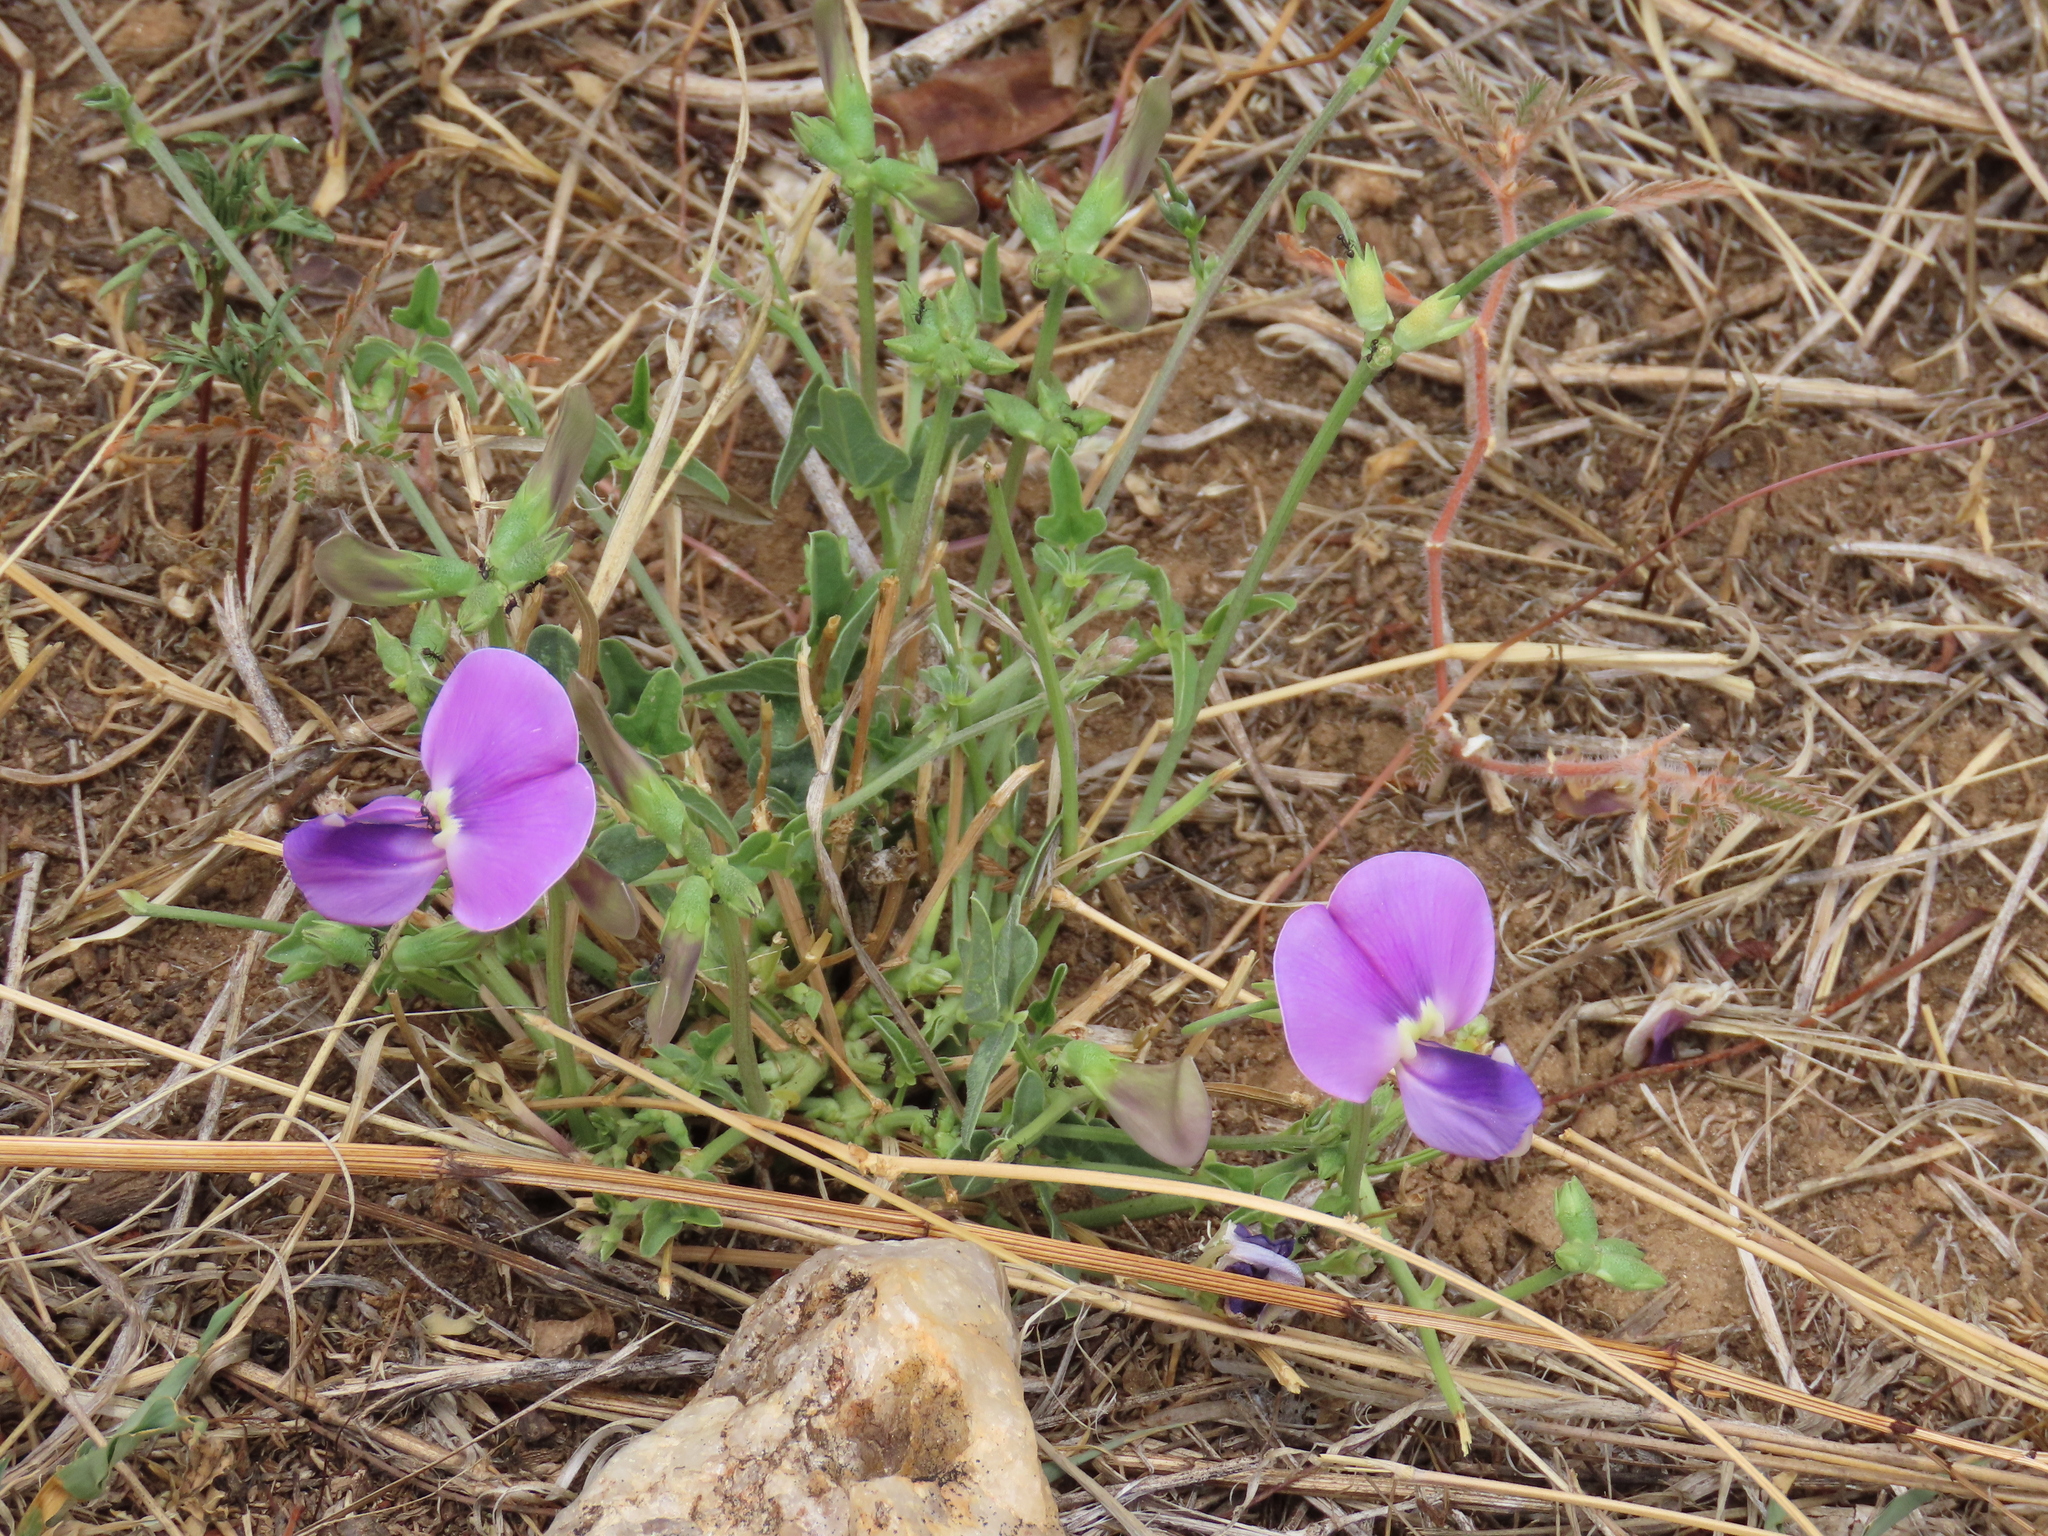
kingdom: Plantae
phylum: Tracheophyta
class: Magnoliopsida
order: Fabales
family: Fabaceae
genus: Vigna
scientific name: Vigna frutescens
